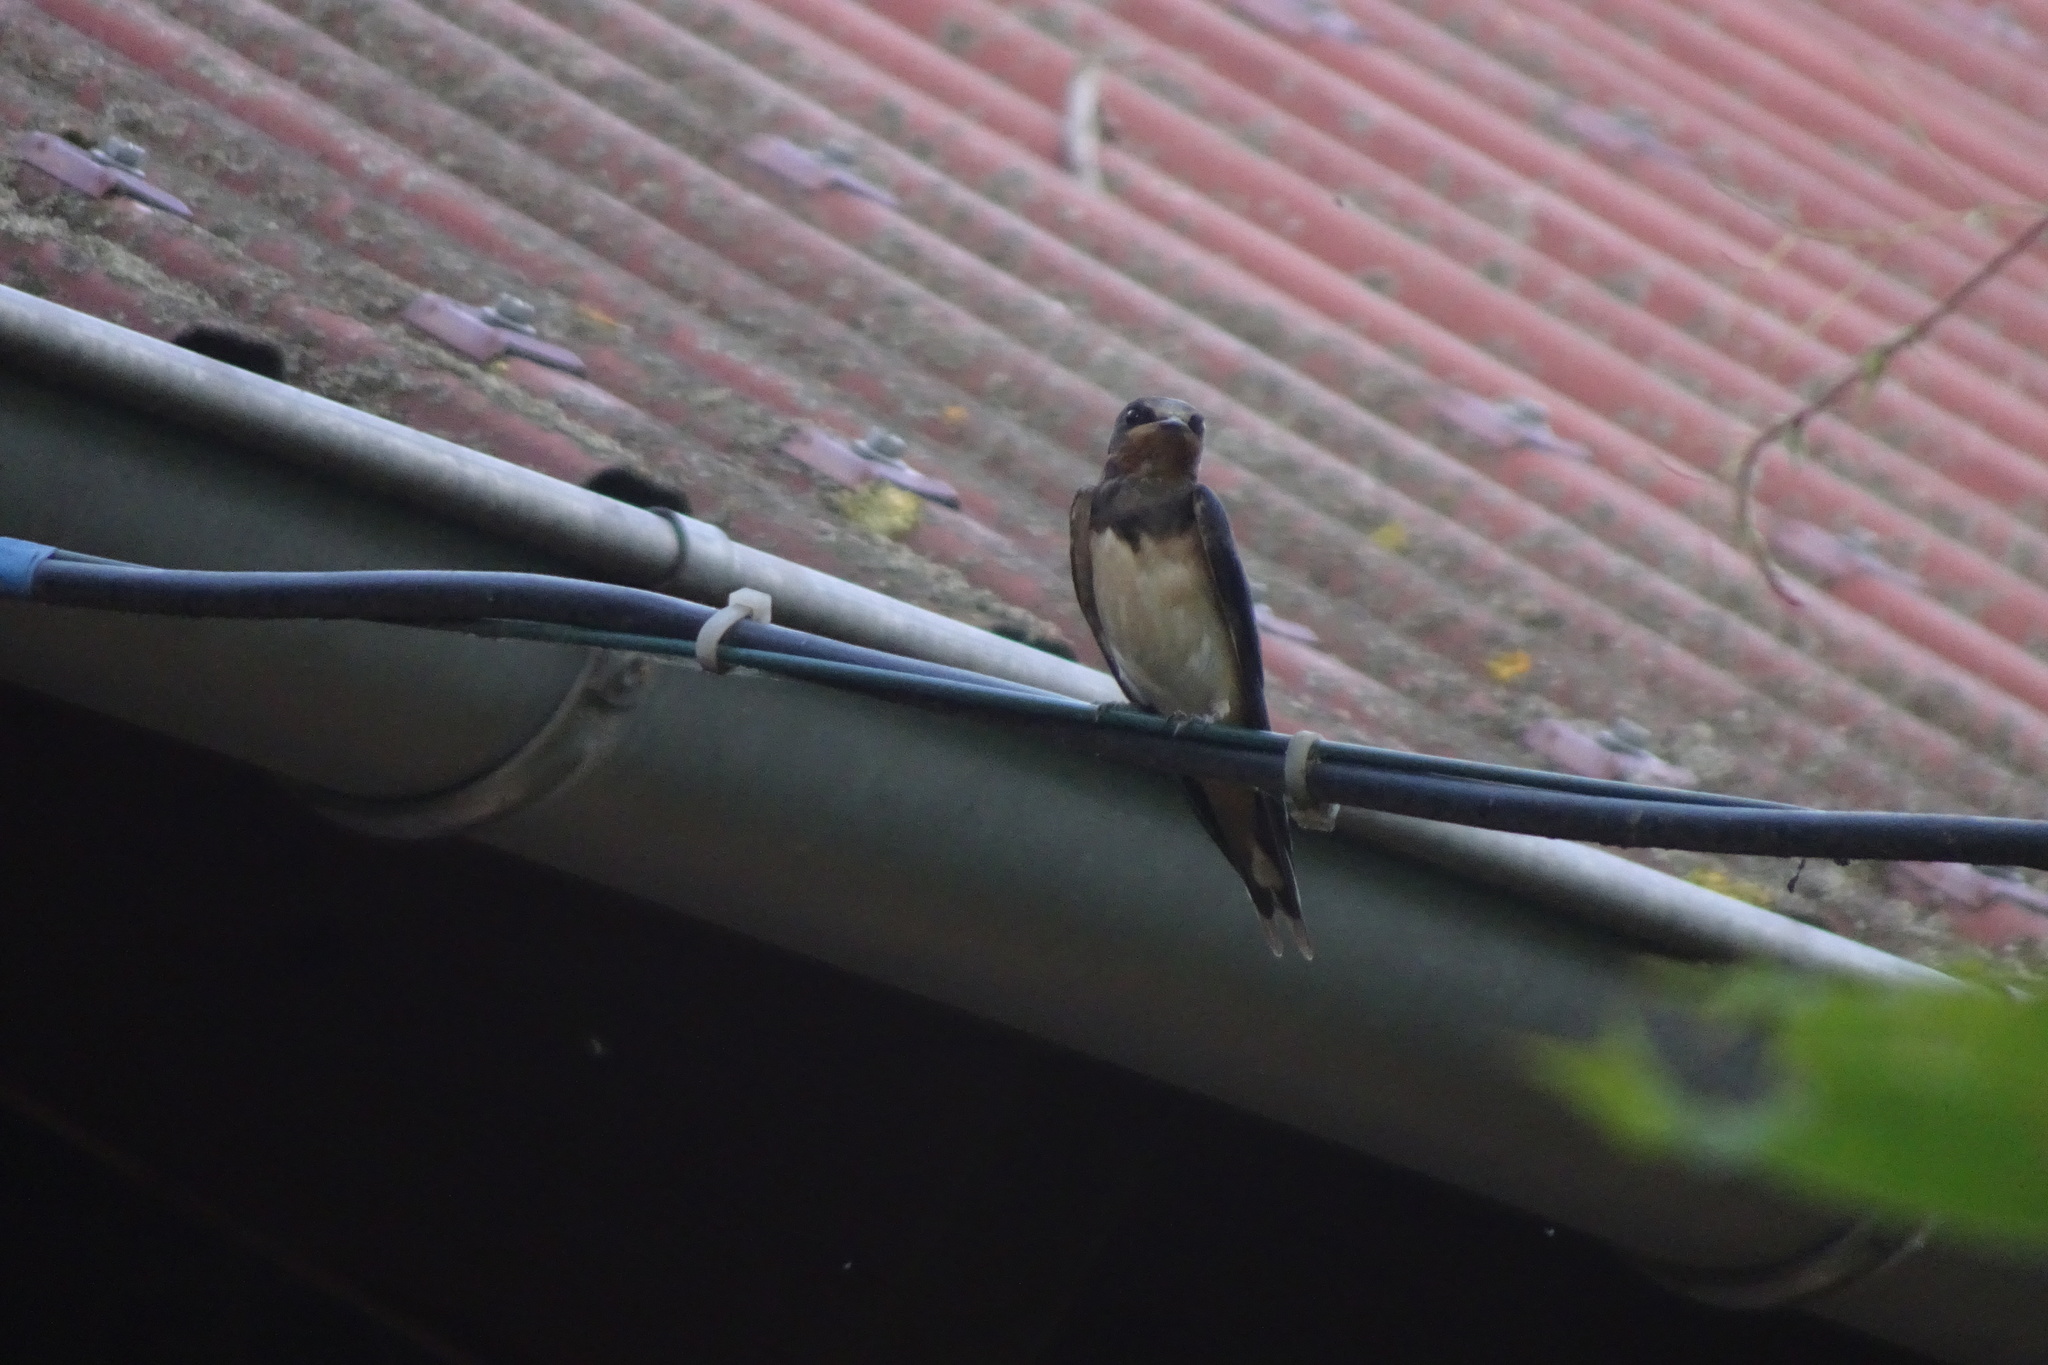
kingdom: Animalia
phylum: Chordata
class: Aves
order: Passeriformes
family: Hirundinidae
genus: Hirundo
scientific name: Hirundo rustica
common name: Barn swallow
